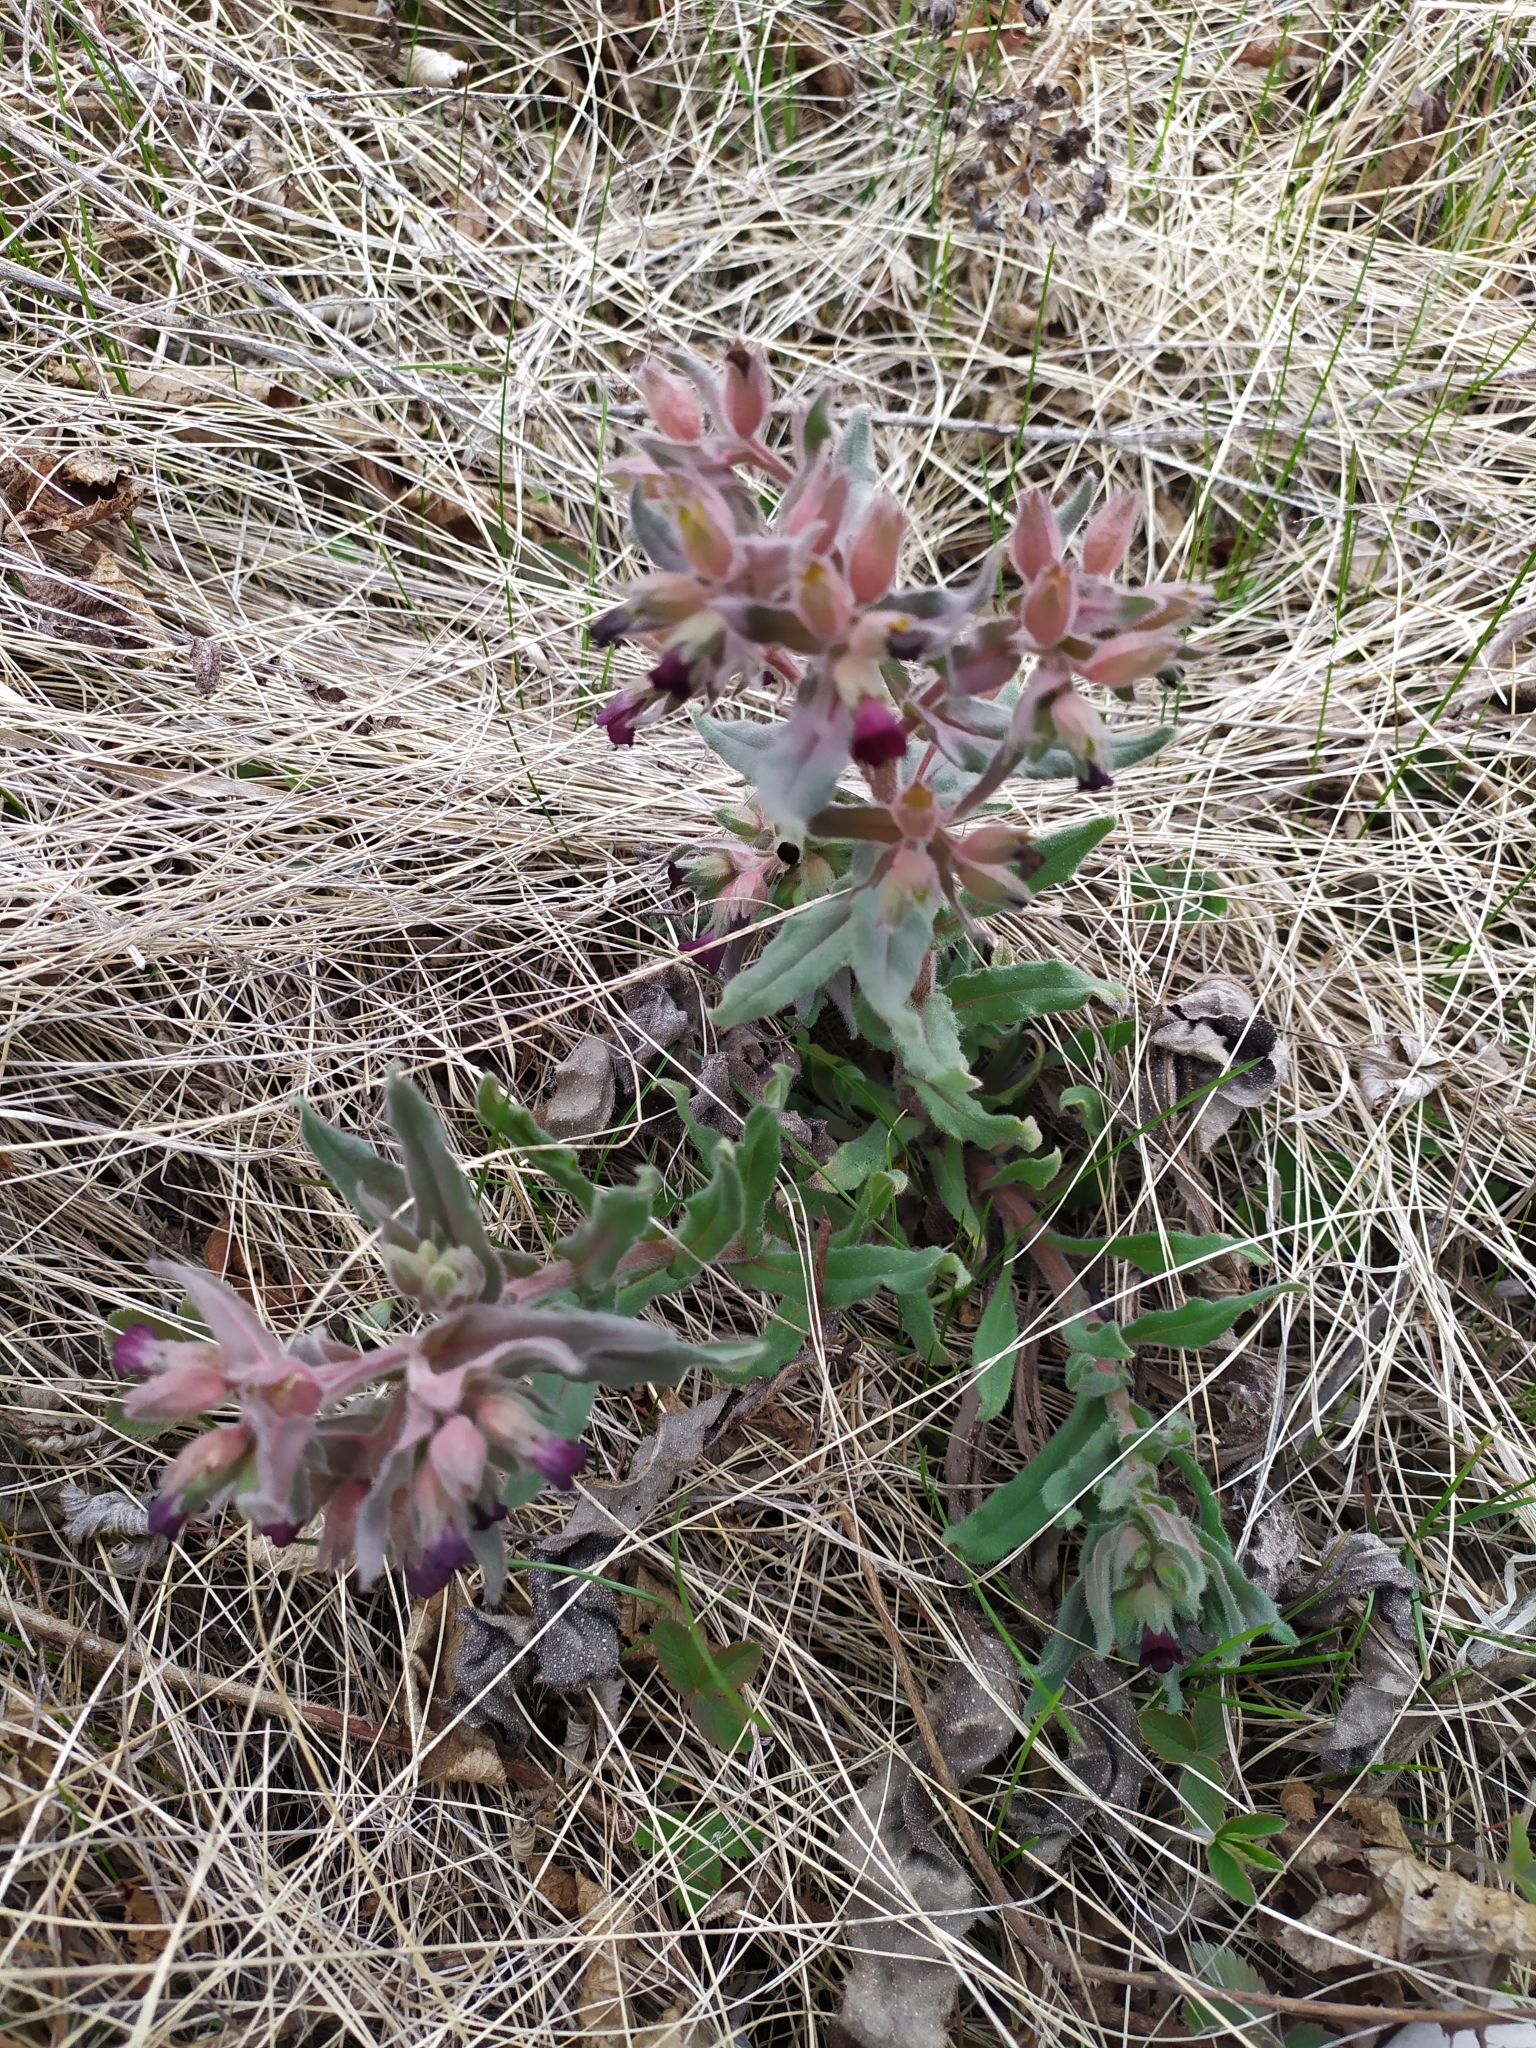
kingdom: Plantae
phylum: Tracheophyta
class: Magnoliopsida
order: Boraginales
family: Boraginaceae
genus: Nonea
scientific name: Nonea pulla
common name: Brown nonea
